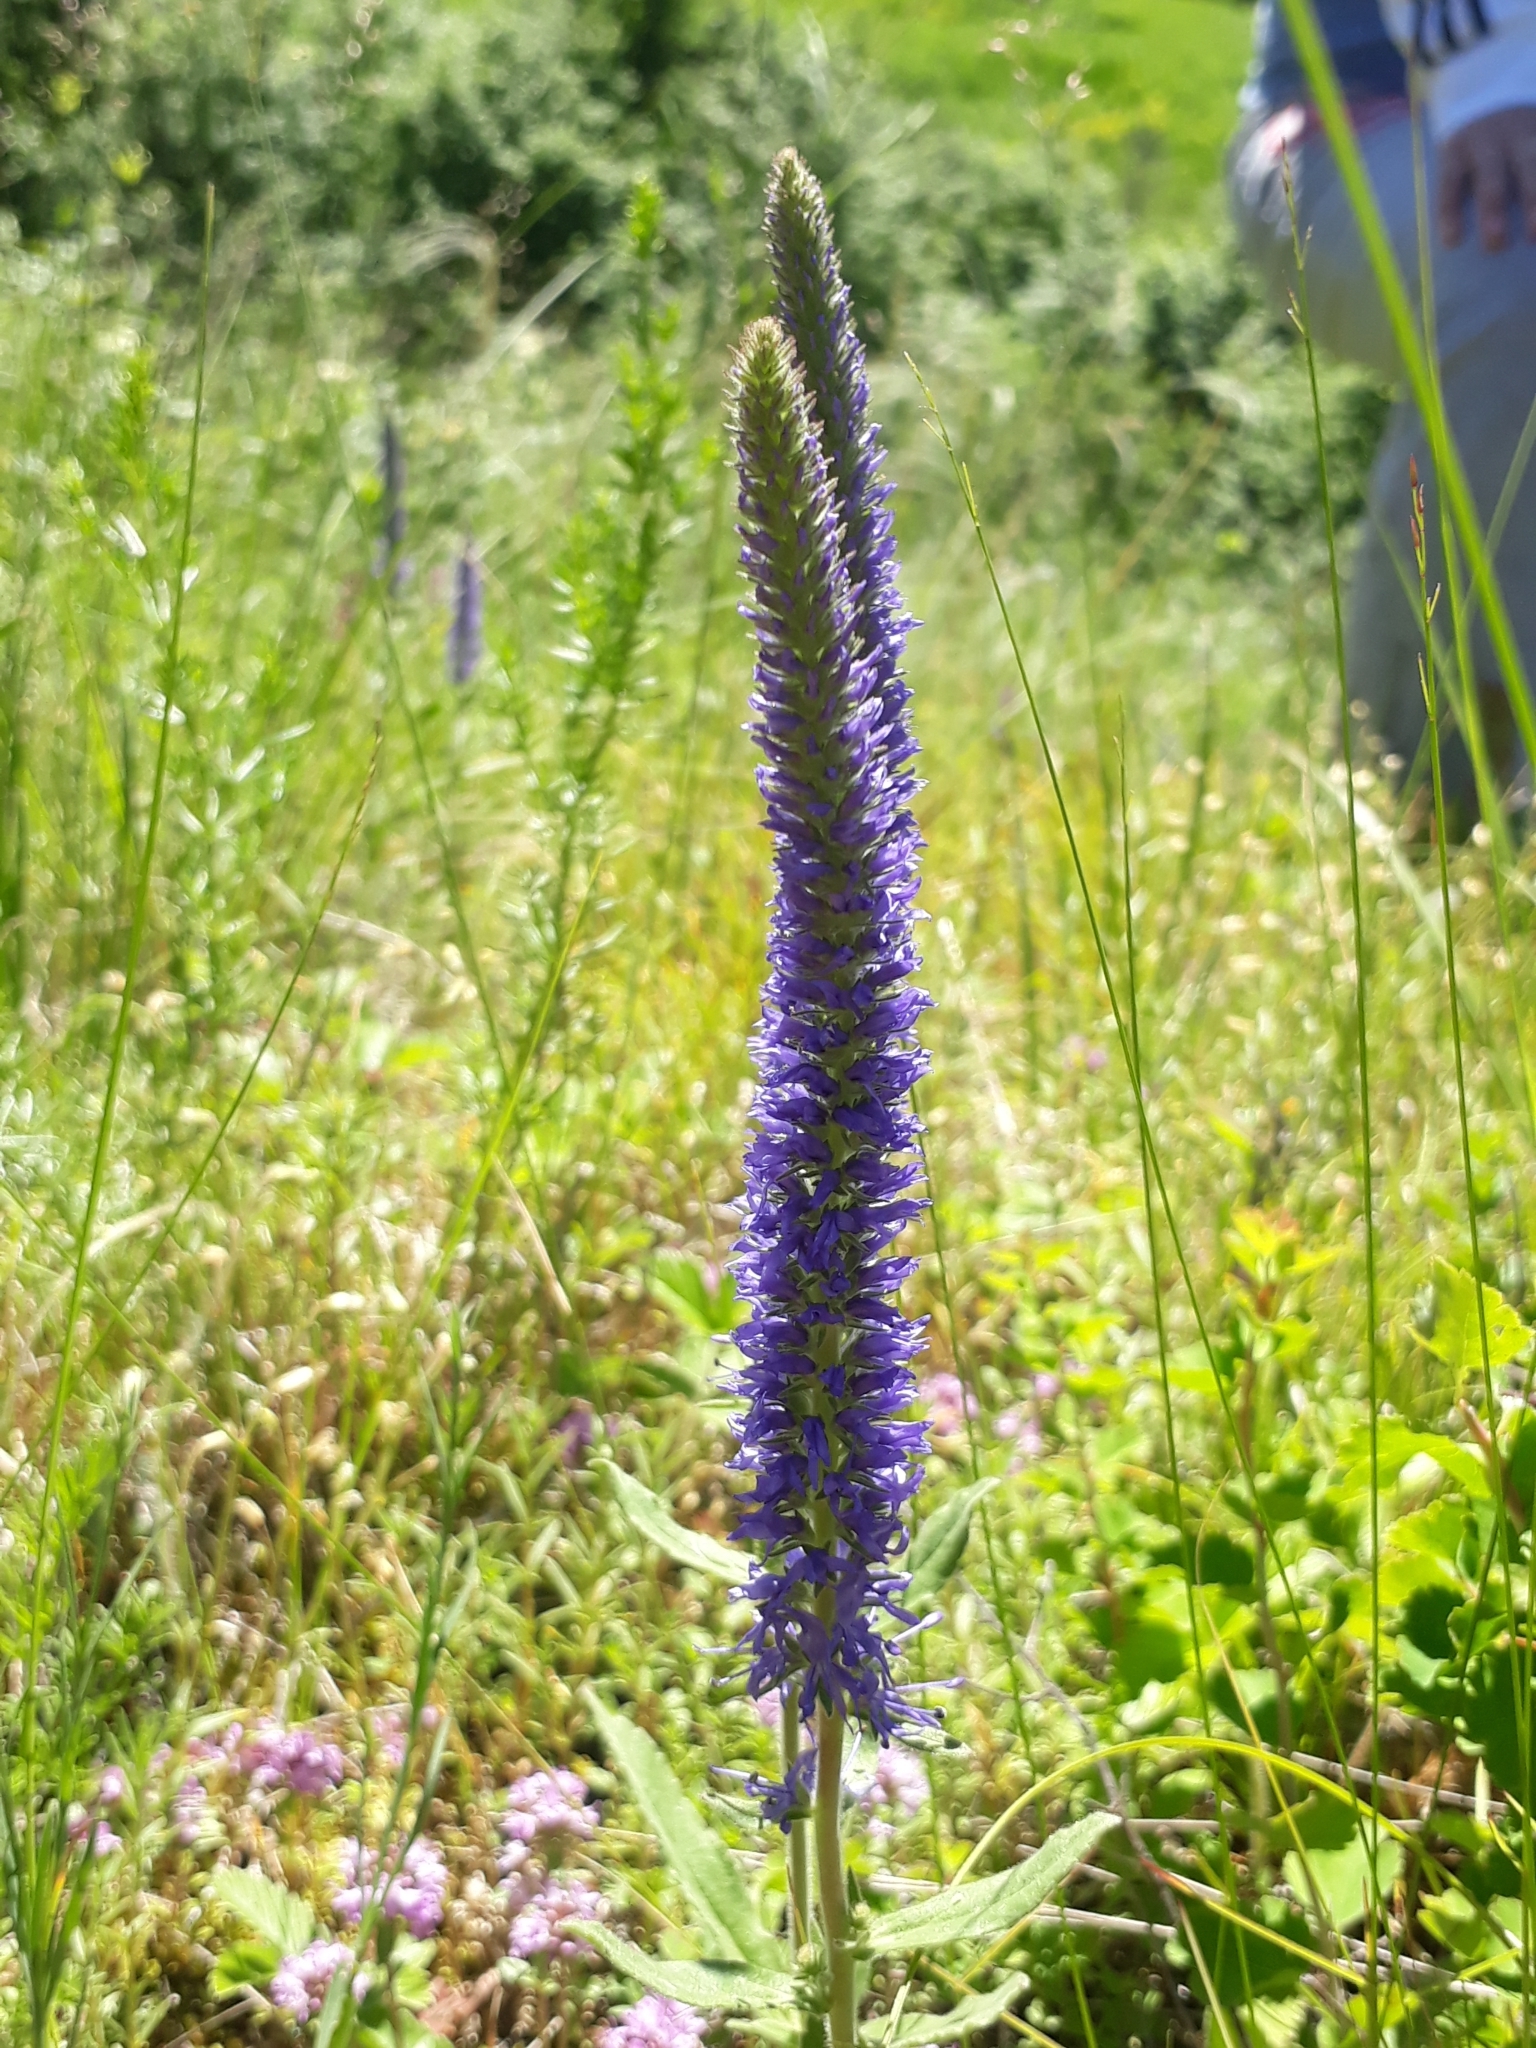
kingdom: Plantae
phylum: Tracheophyta
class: Magnoliopsida
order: Lamiales
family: Plantaginaceae
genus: Veronica
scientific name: Veronica porphyriana
